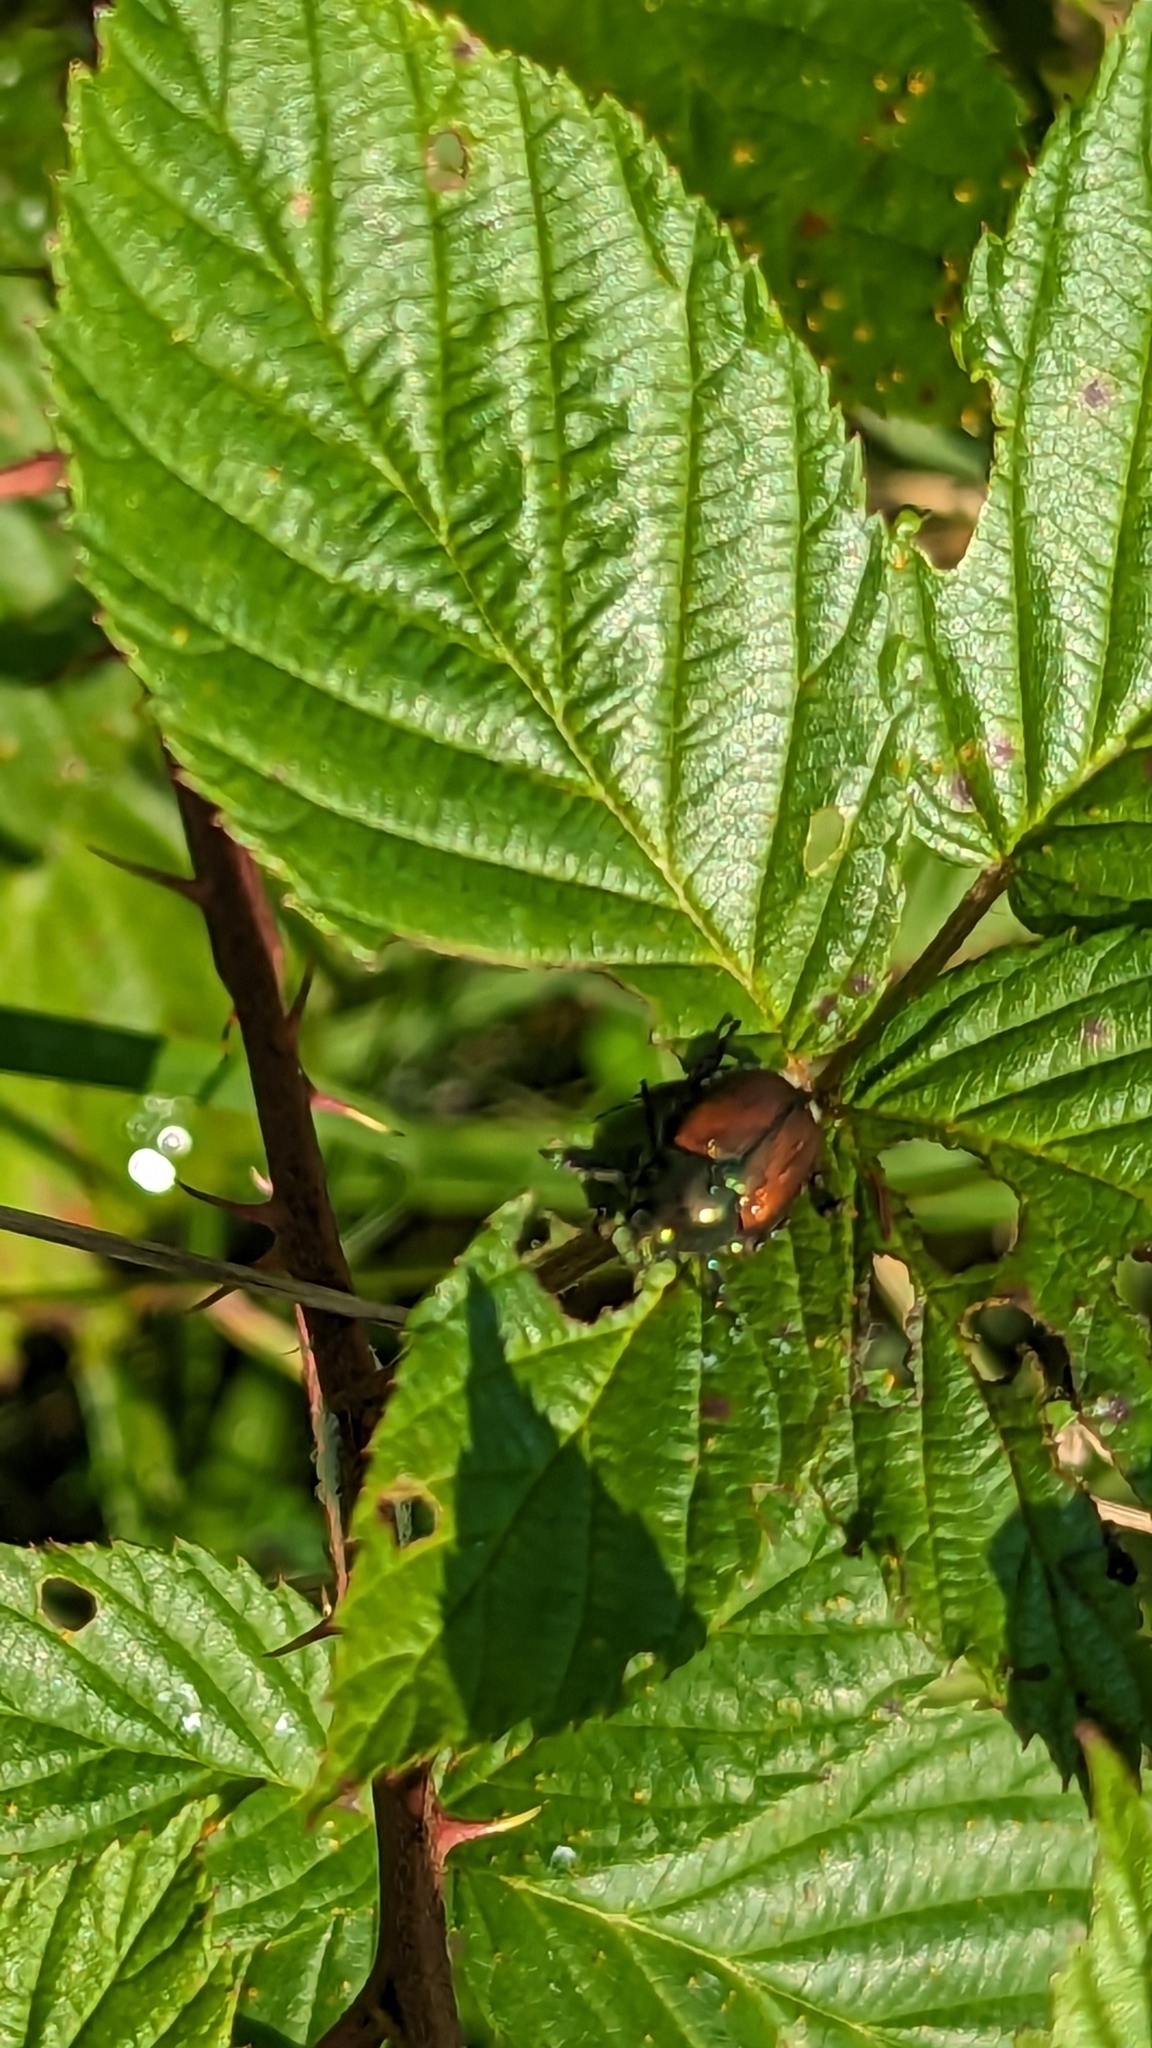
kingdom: Animalia
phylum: Arthropoda
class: Insecta
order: Coleoptera
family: Scarabaeidae
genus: Popillia
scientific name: Popillia japonica
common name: Japanese beetle
